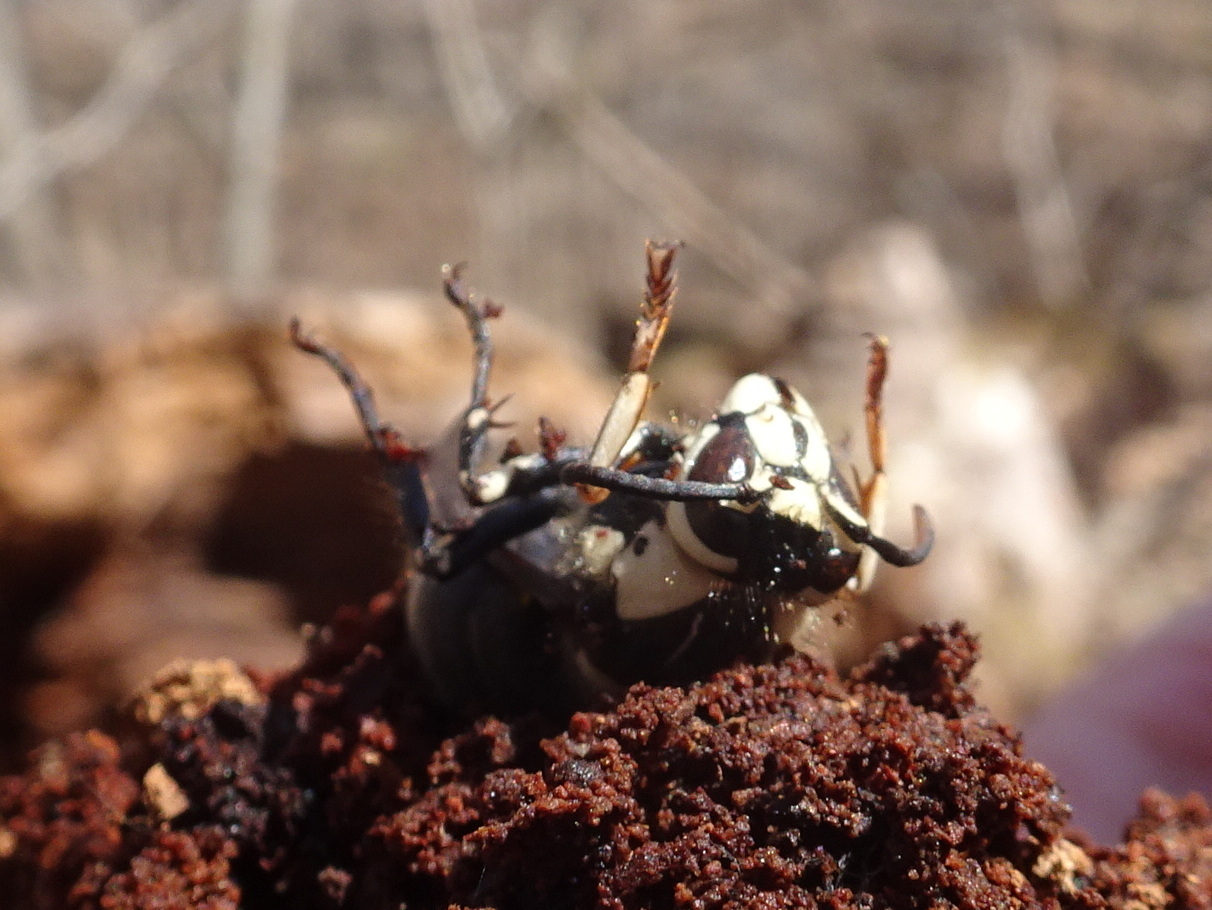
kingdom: Animalia
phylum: Arthropoda
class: Insecta
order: Hymenoptera
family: Vespidae
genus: Dolichovespula
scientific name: Dolichovespula maculata
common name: Bald-faced hornet
